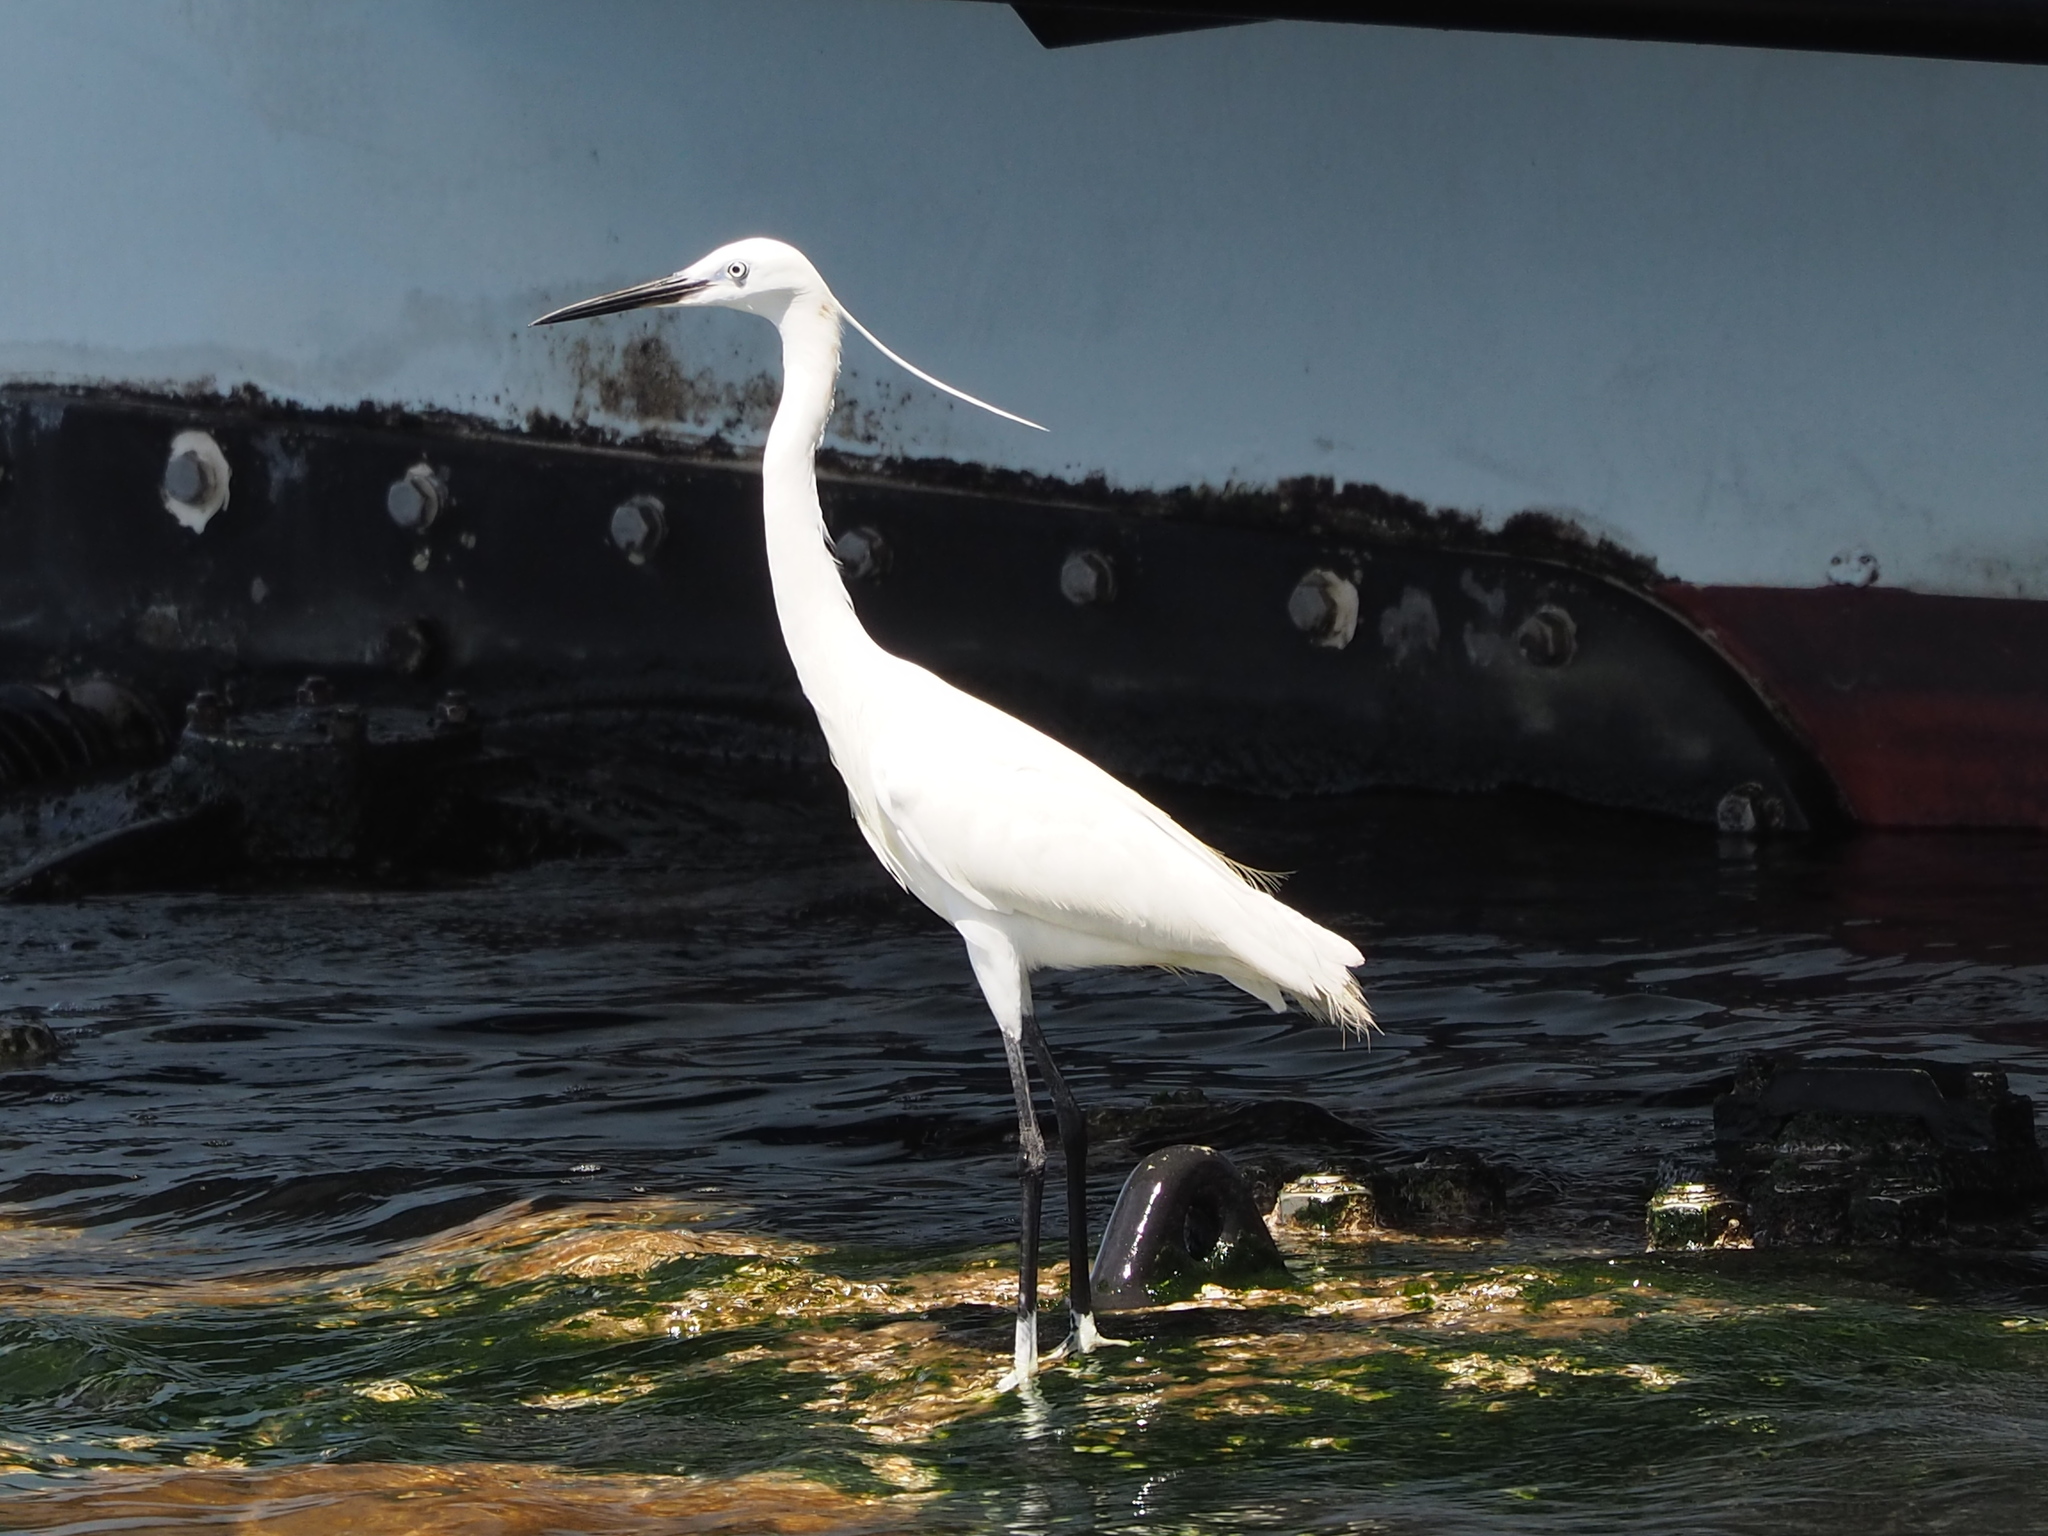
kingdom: Animalia
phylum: Chordata
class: Aves
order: Pelecaniformes
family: Ardeidae
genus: Egretta
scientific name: Egretta garzetta
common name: Little egret
